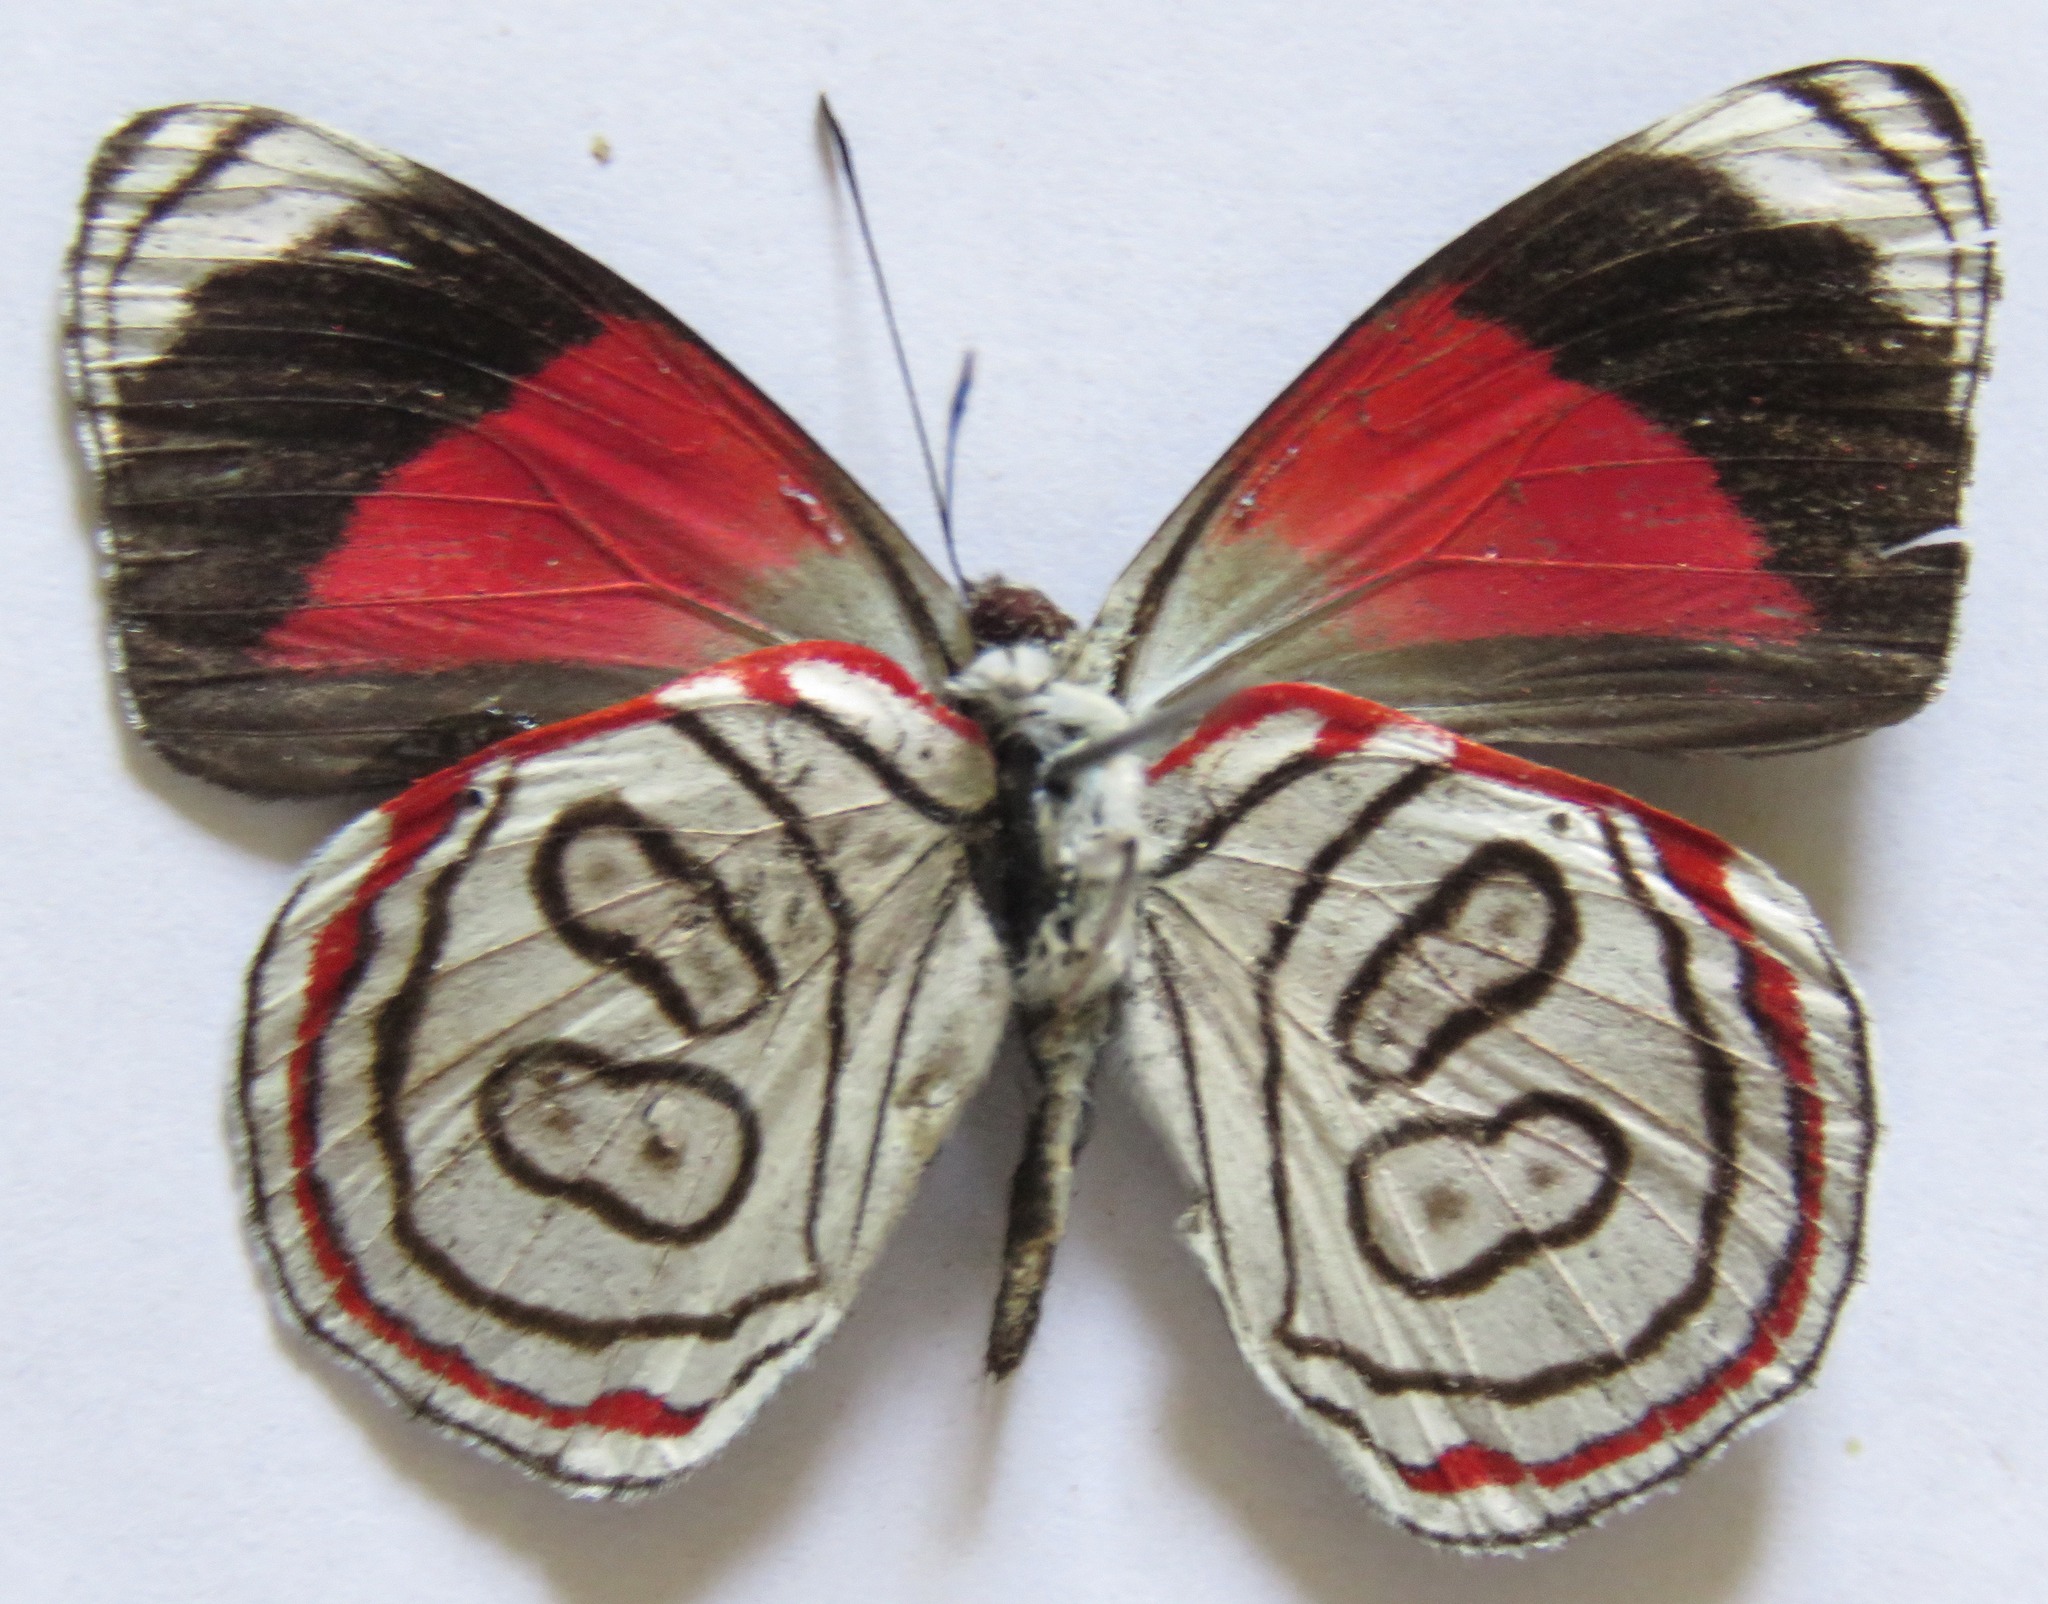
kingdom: Animalia
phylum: Arthropoda
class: Insecta
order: Lepidoptera
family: Nymphalidae
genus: Diaethria
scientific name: Diaethria astala
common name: Navy eighty-eight
